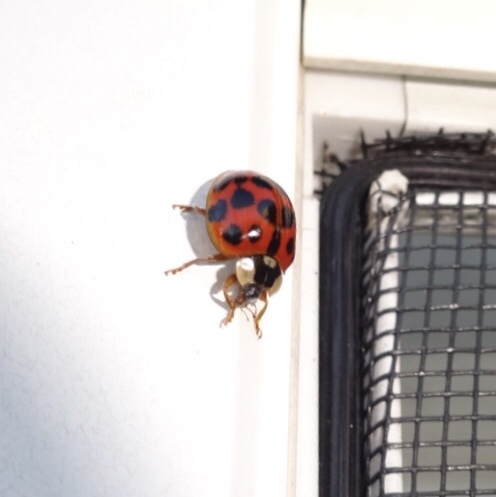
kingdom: Animalia
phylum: Arthropoda
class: Insecta
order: Coleoptera
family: Coccinellidae
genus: Harmonia
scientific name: Harmonia axyridis
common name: Harlequin ladybird
